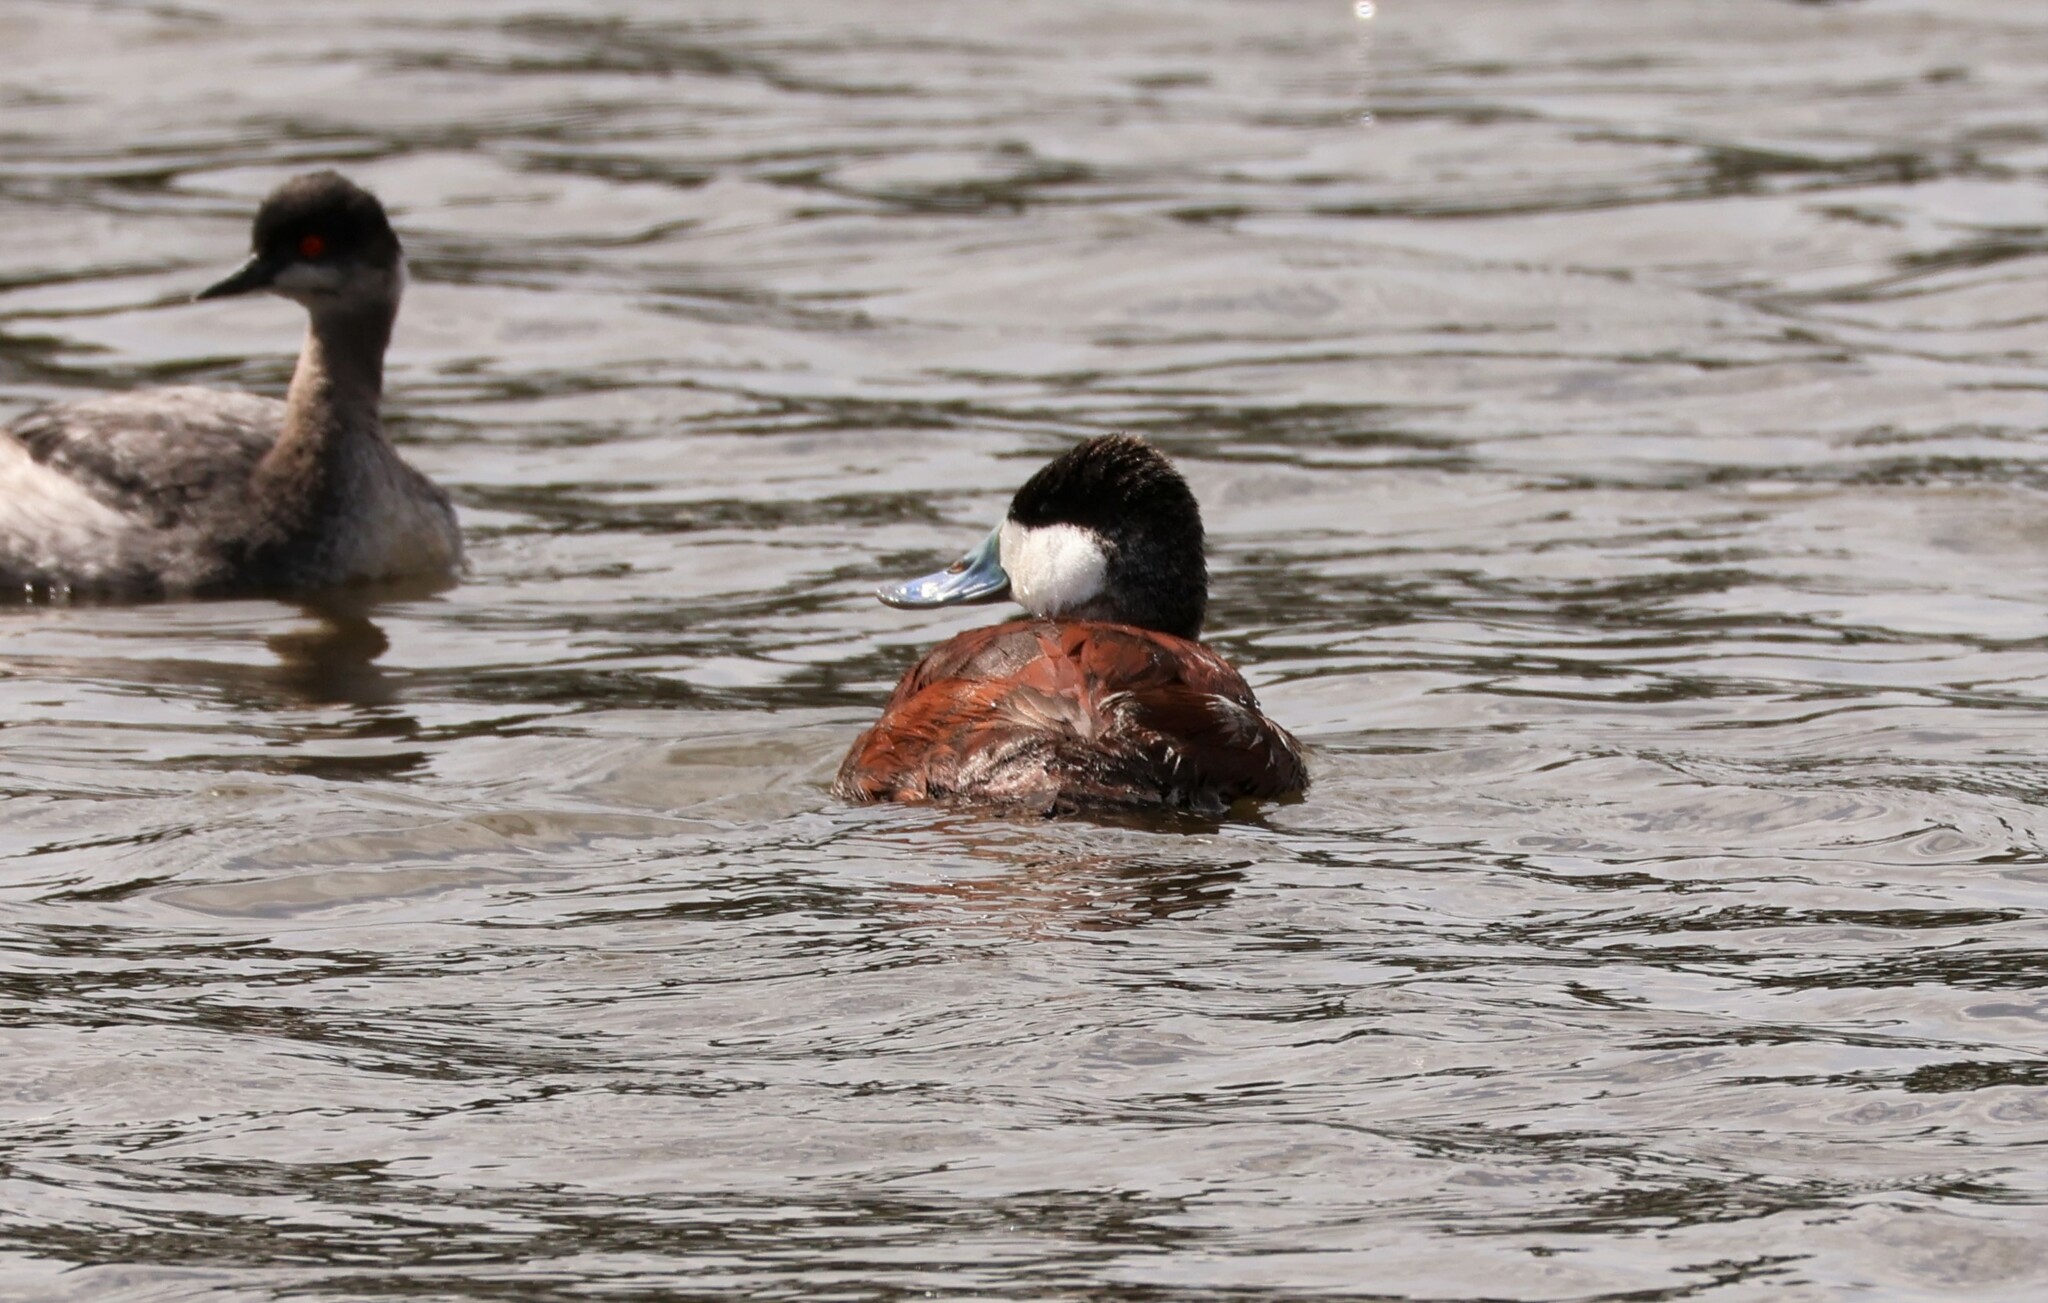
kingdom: Animalia
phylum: Chordata
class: Aves
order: Anseriformes
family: Anatidae
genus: Oxyura
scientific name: Oxyura jamaicensis
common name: Ruddy duck
